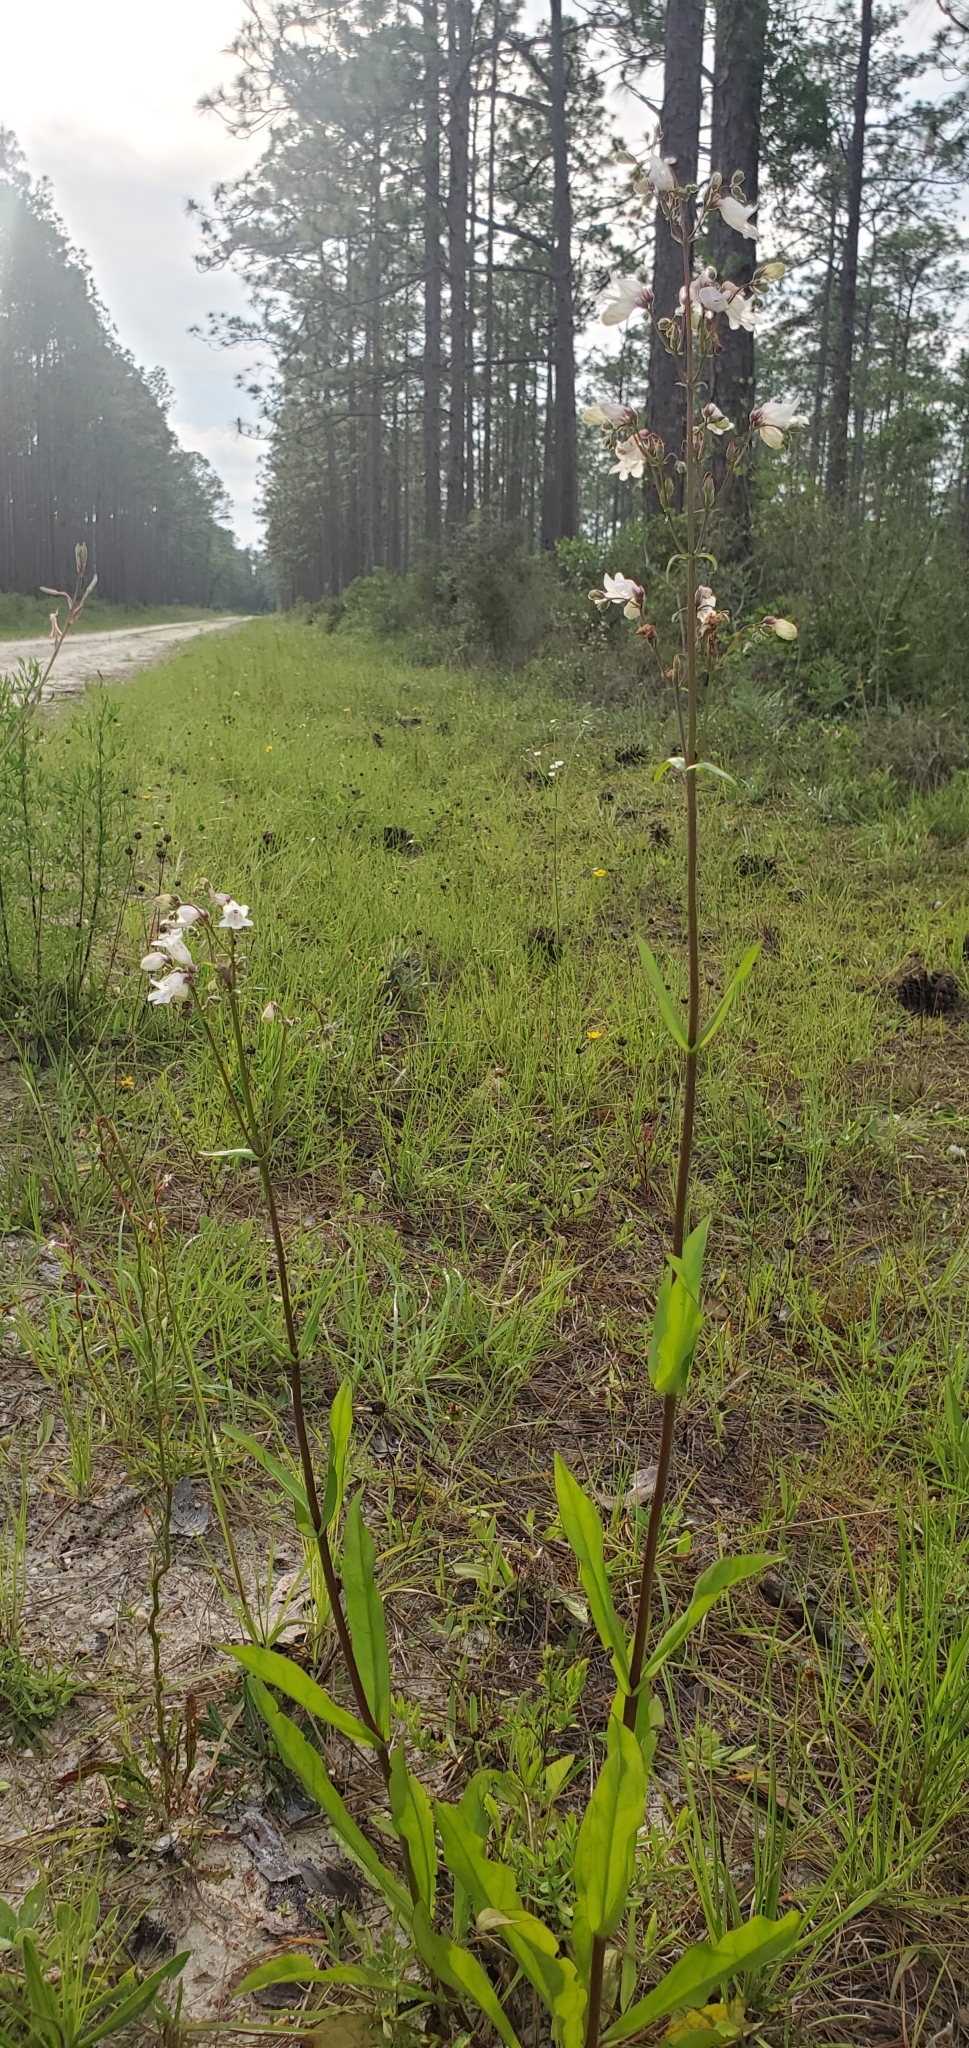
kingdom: Plantae
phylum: Tracheophyta
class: Magnoliopsida
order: Lamiales
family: Plantaginaceae
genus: Penstemon
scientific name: Penstemon multiflorus
